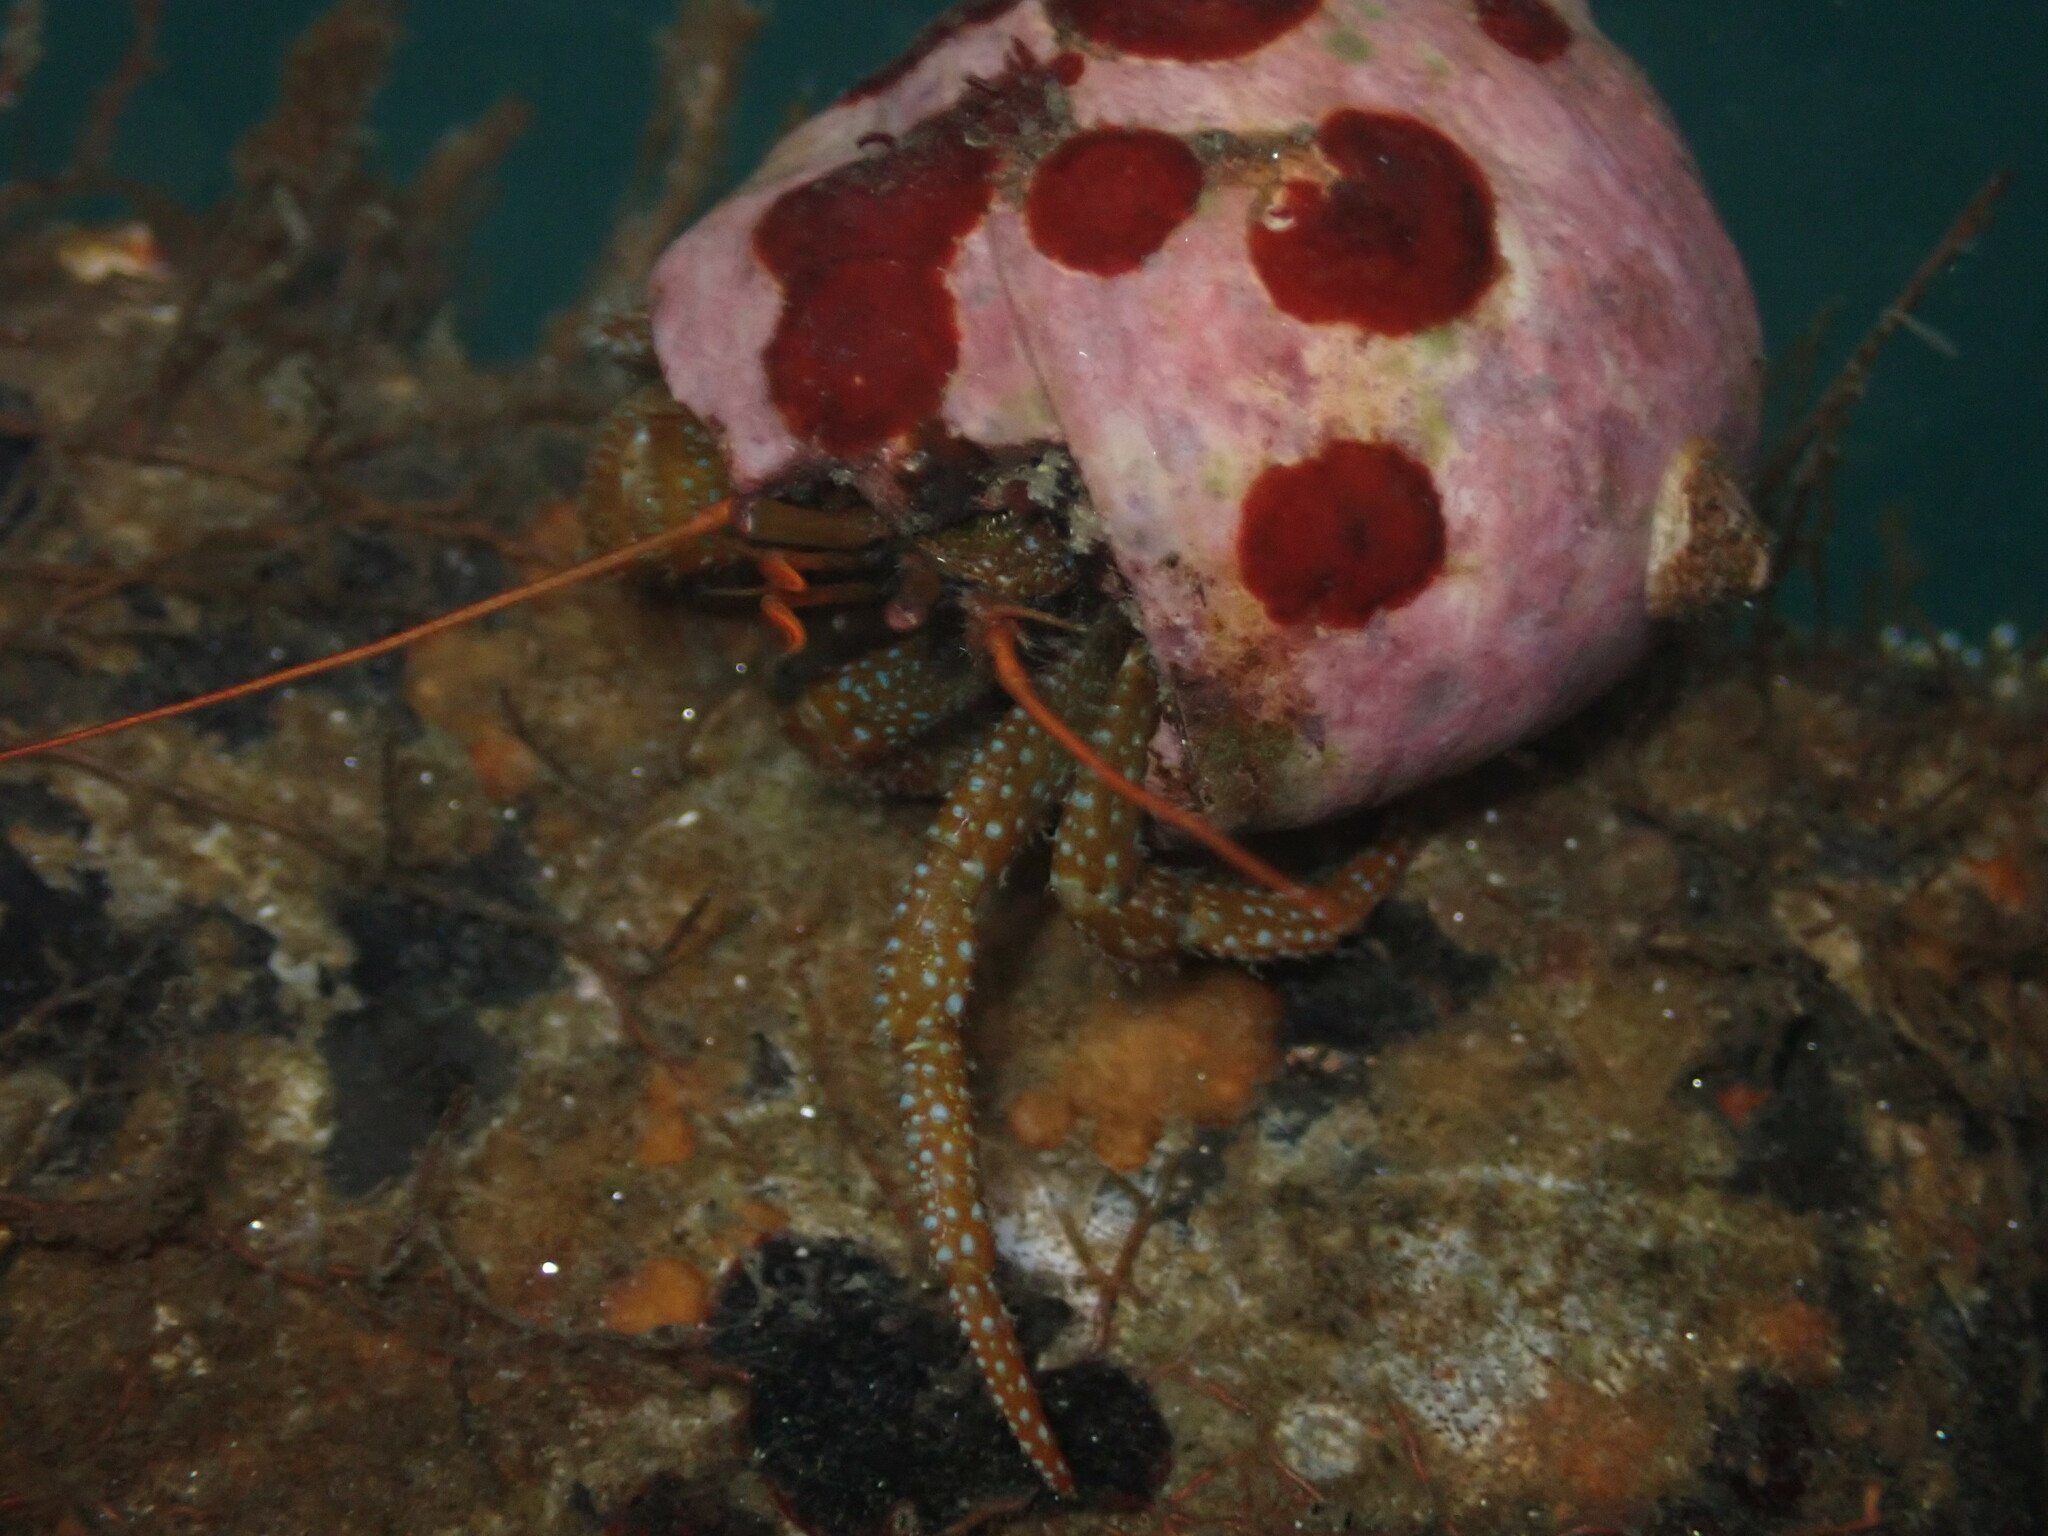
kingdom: Animalia
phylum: Arthropoda
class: Malacostraca
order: Decapoda
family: Paguridae
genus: Pagurus
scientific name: Pagurus granosimanus
